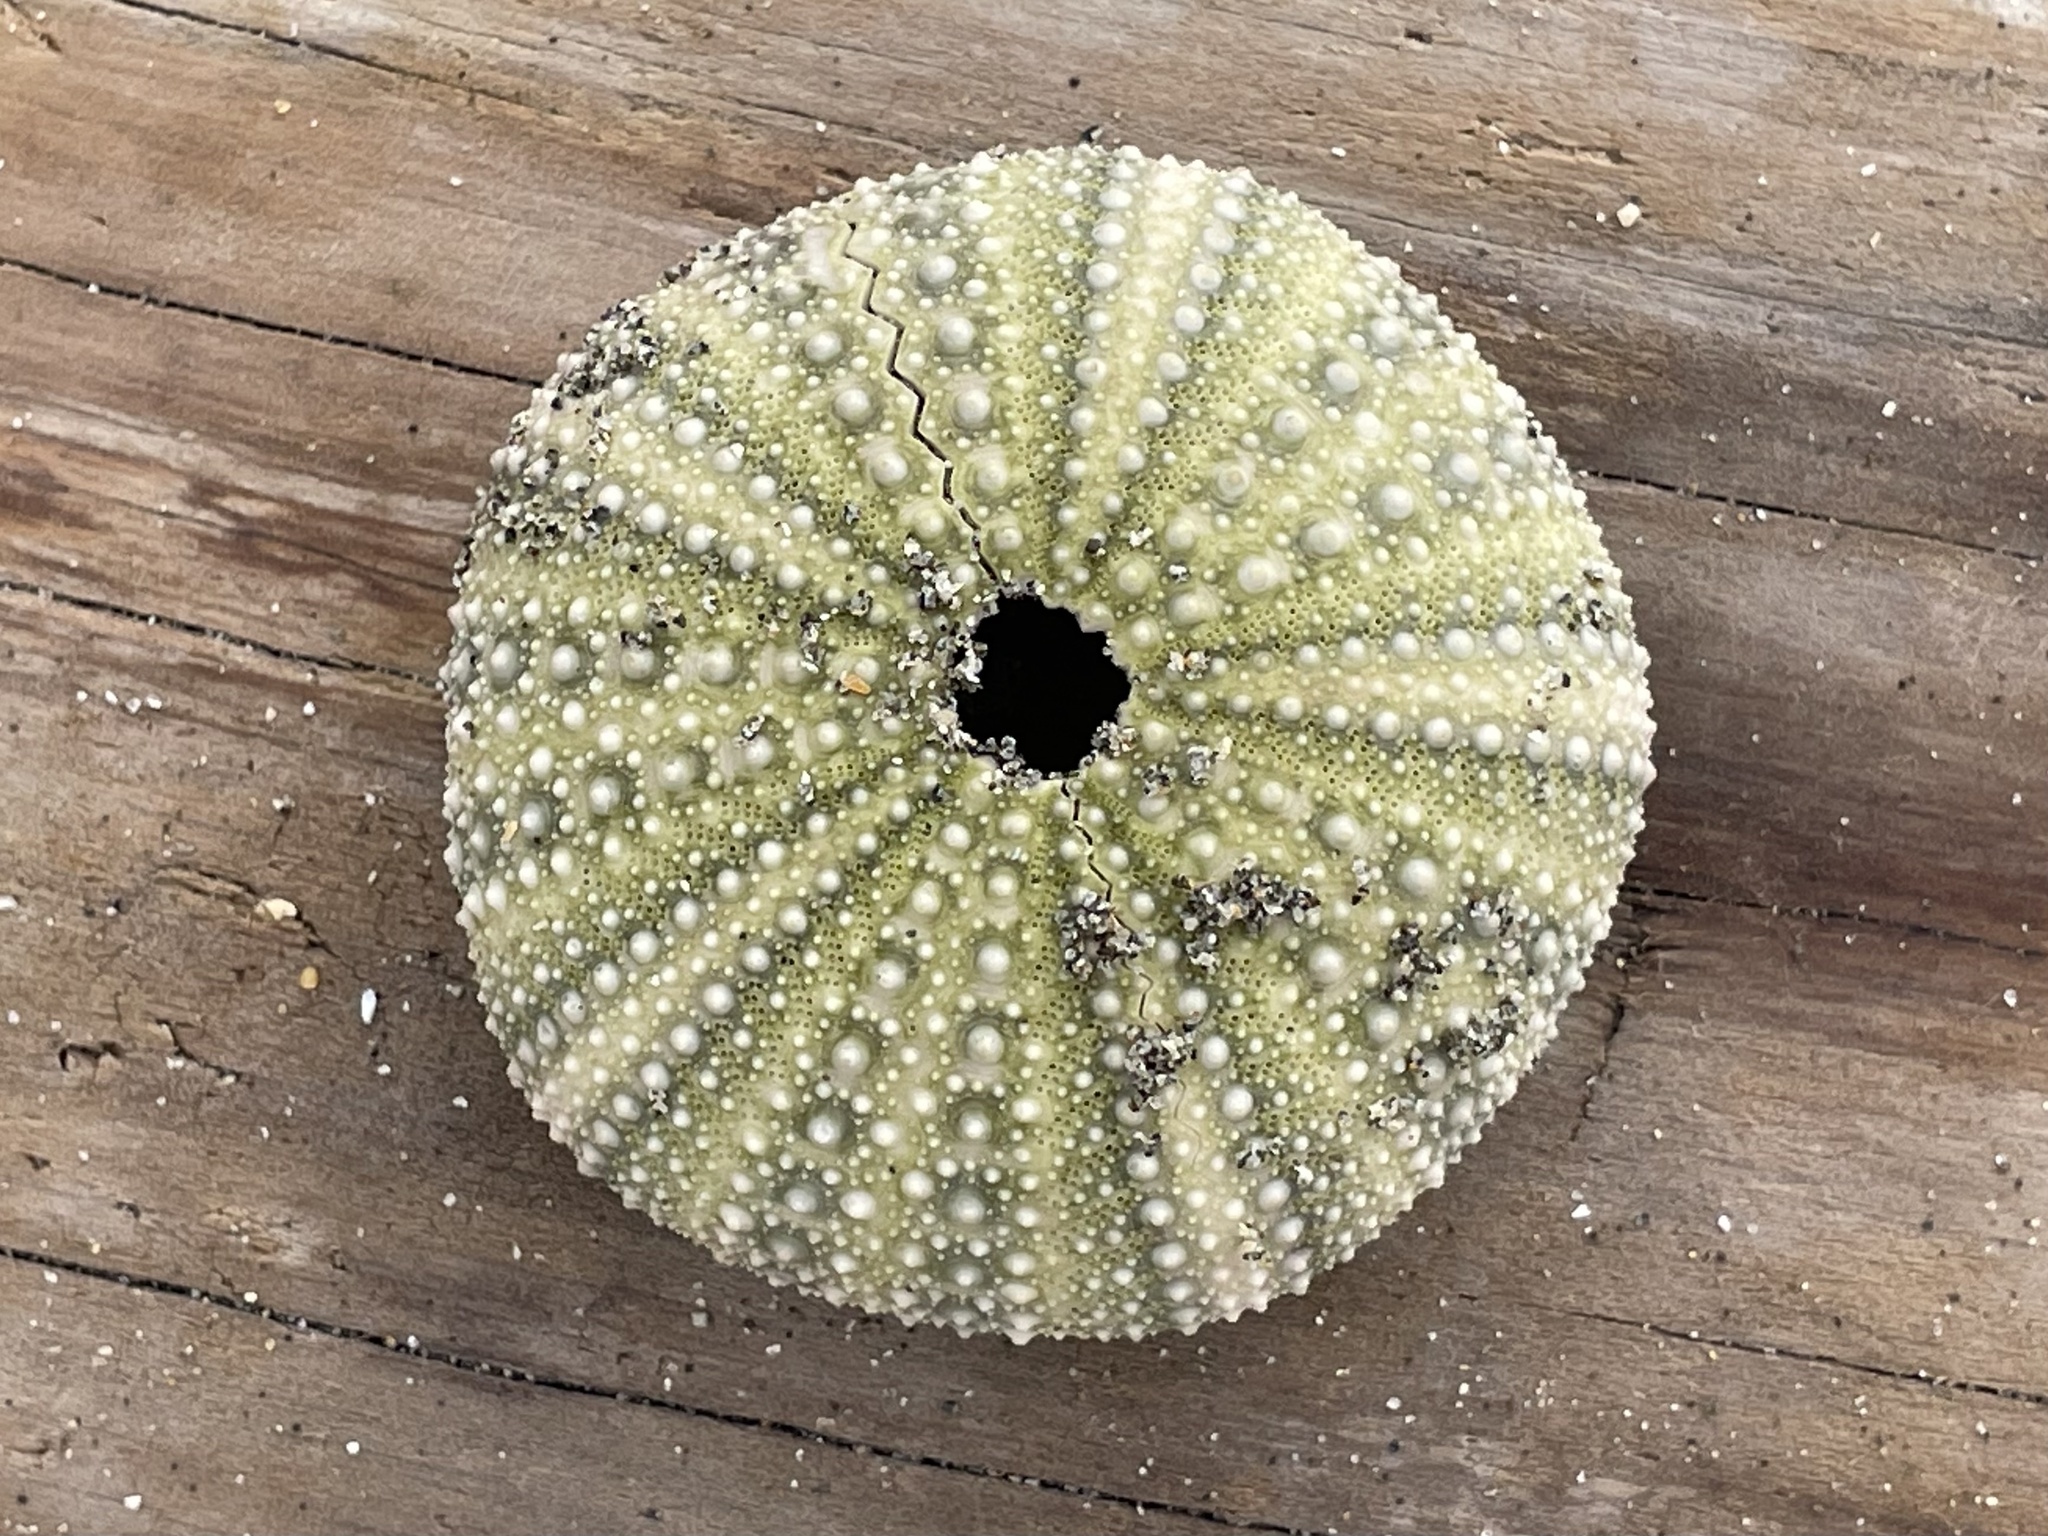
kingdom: Animalia
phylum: Echinodermata
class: Echinoidea
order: Camarodonta
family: Strongylocentrotidae
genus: Strongylocentrotus
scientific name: Strongylocentrotus purpuratus
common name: Purple sea urchin
